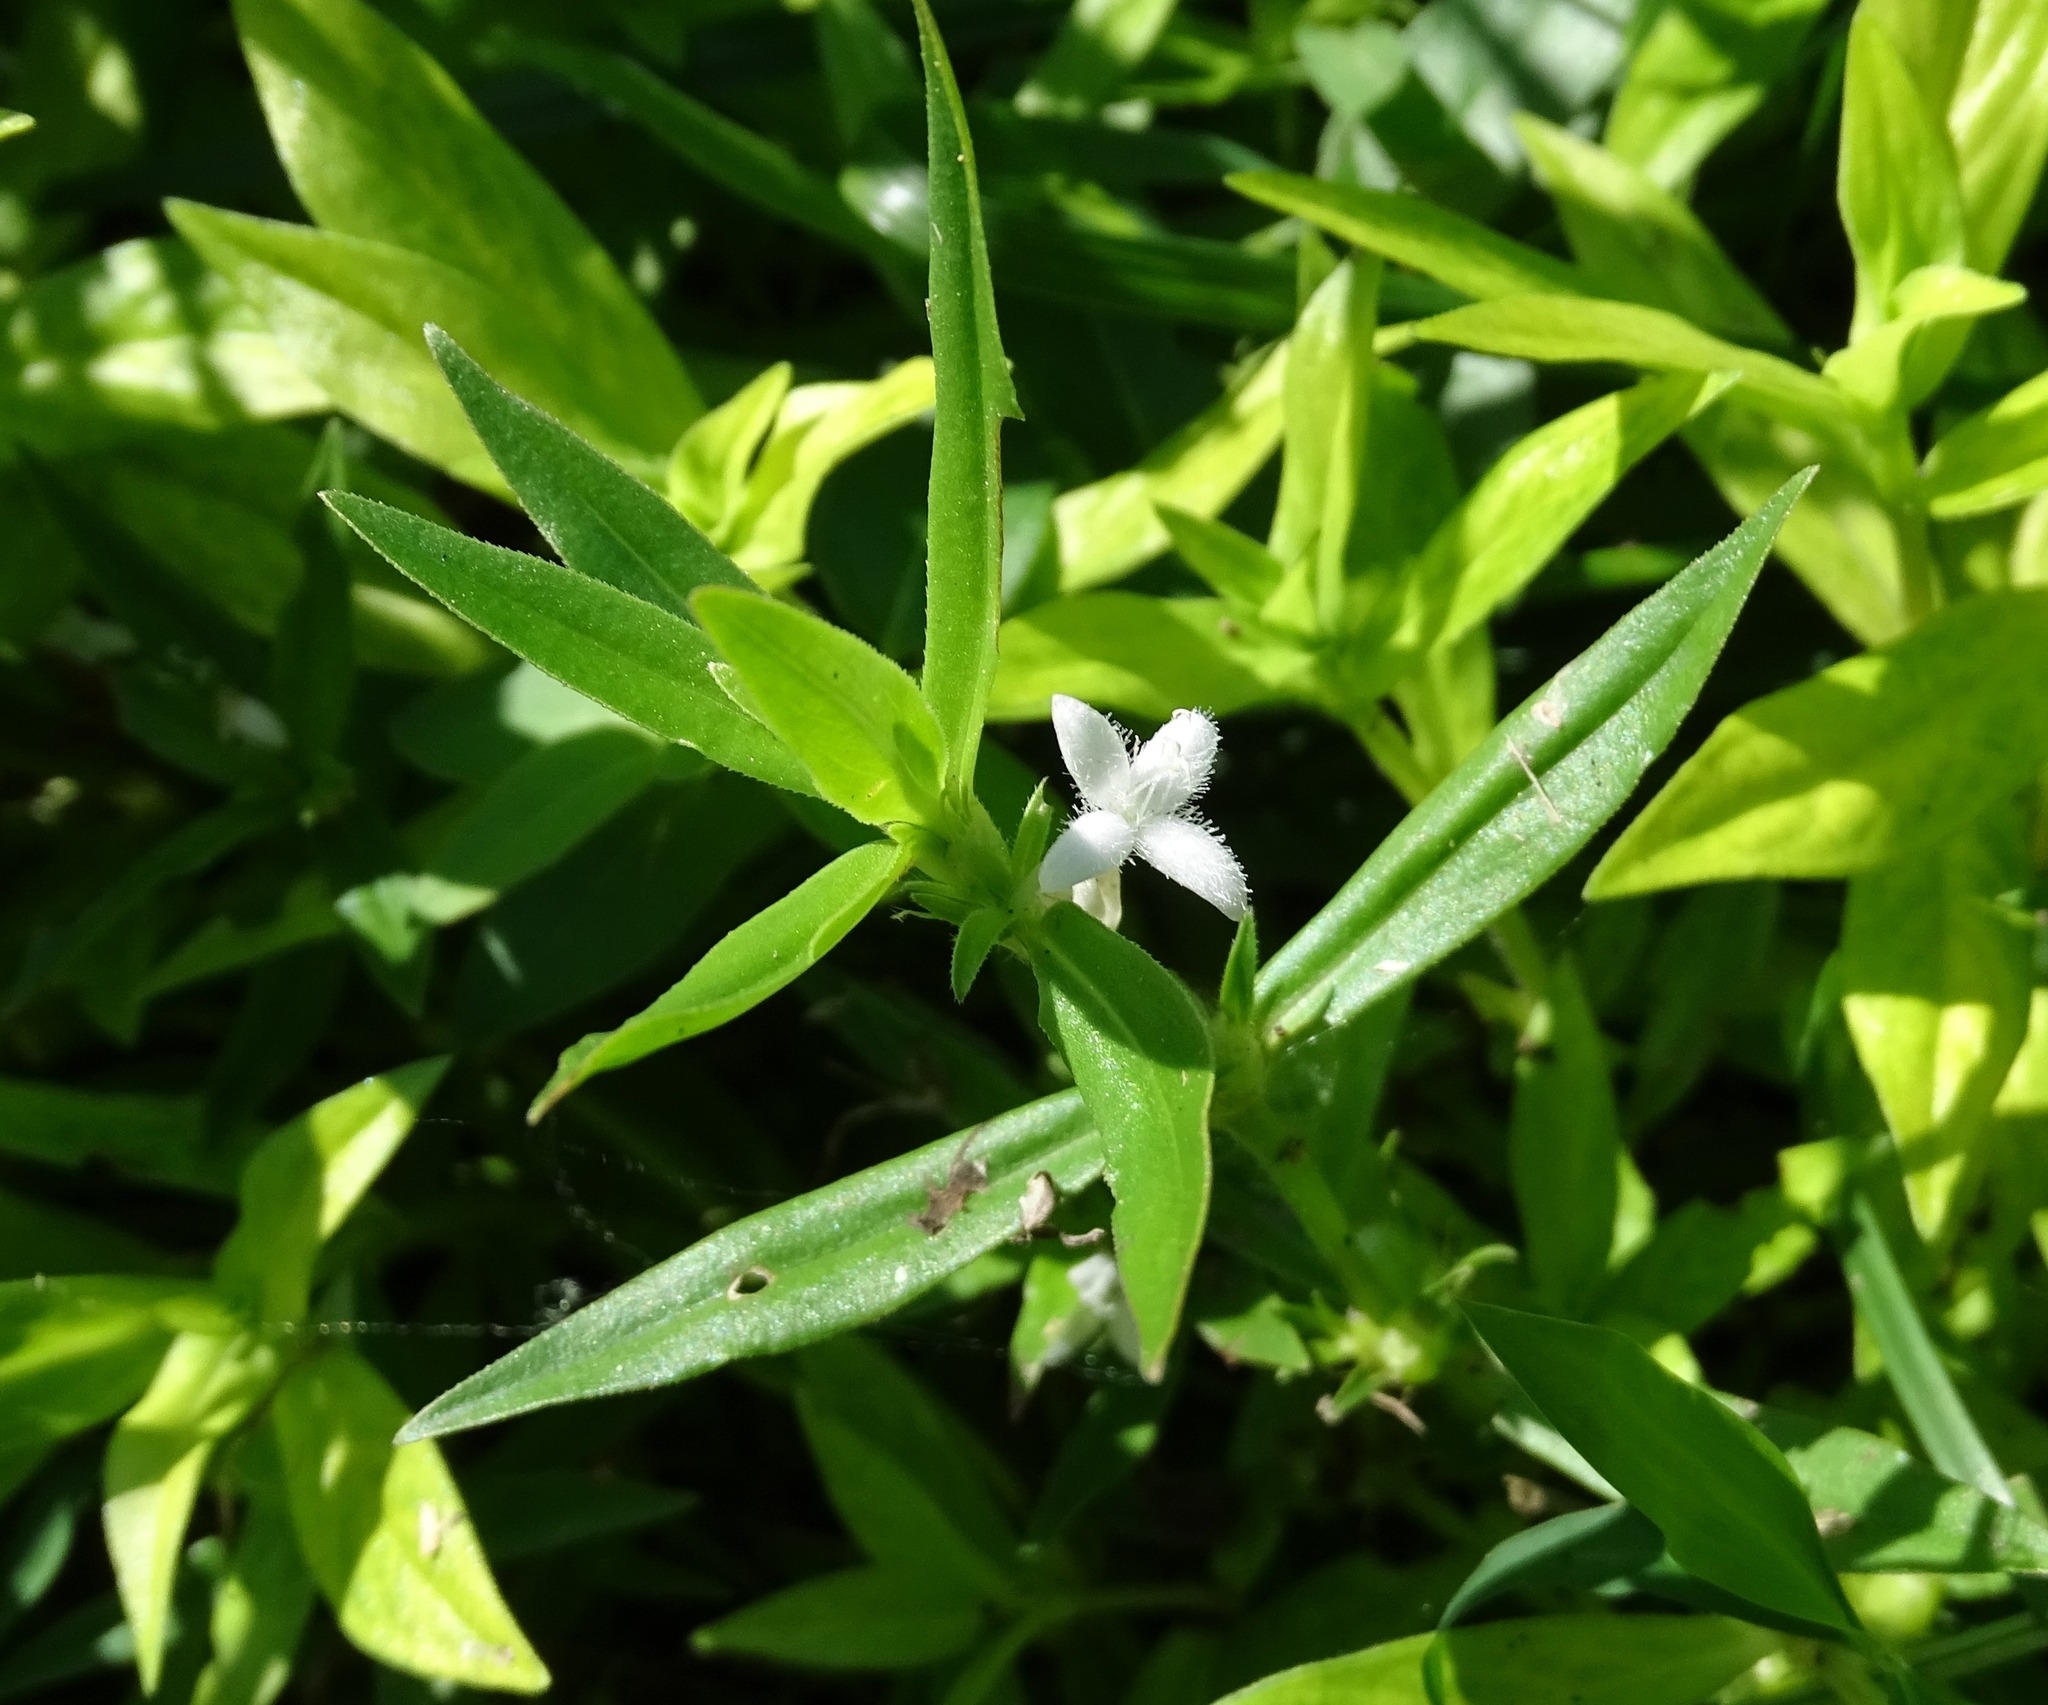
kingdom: Plantae
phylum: Tracheophyta
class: Magnoliopsida
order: Gentianales
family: Rubiaceae
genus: Diodia
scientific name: Diodia virginiana
